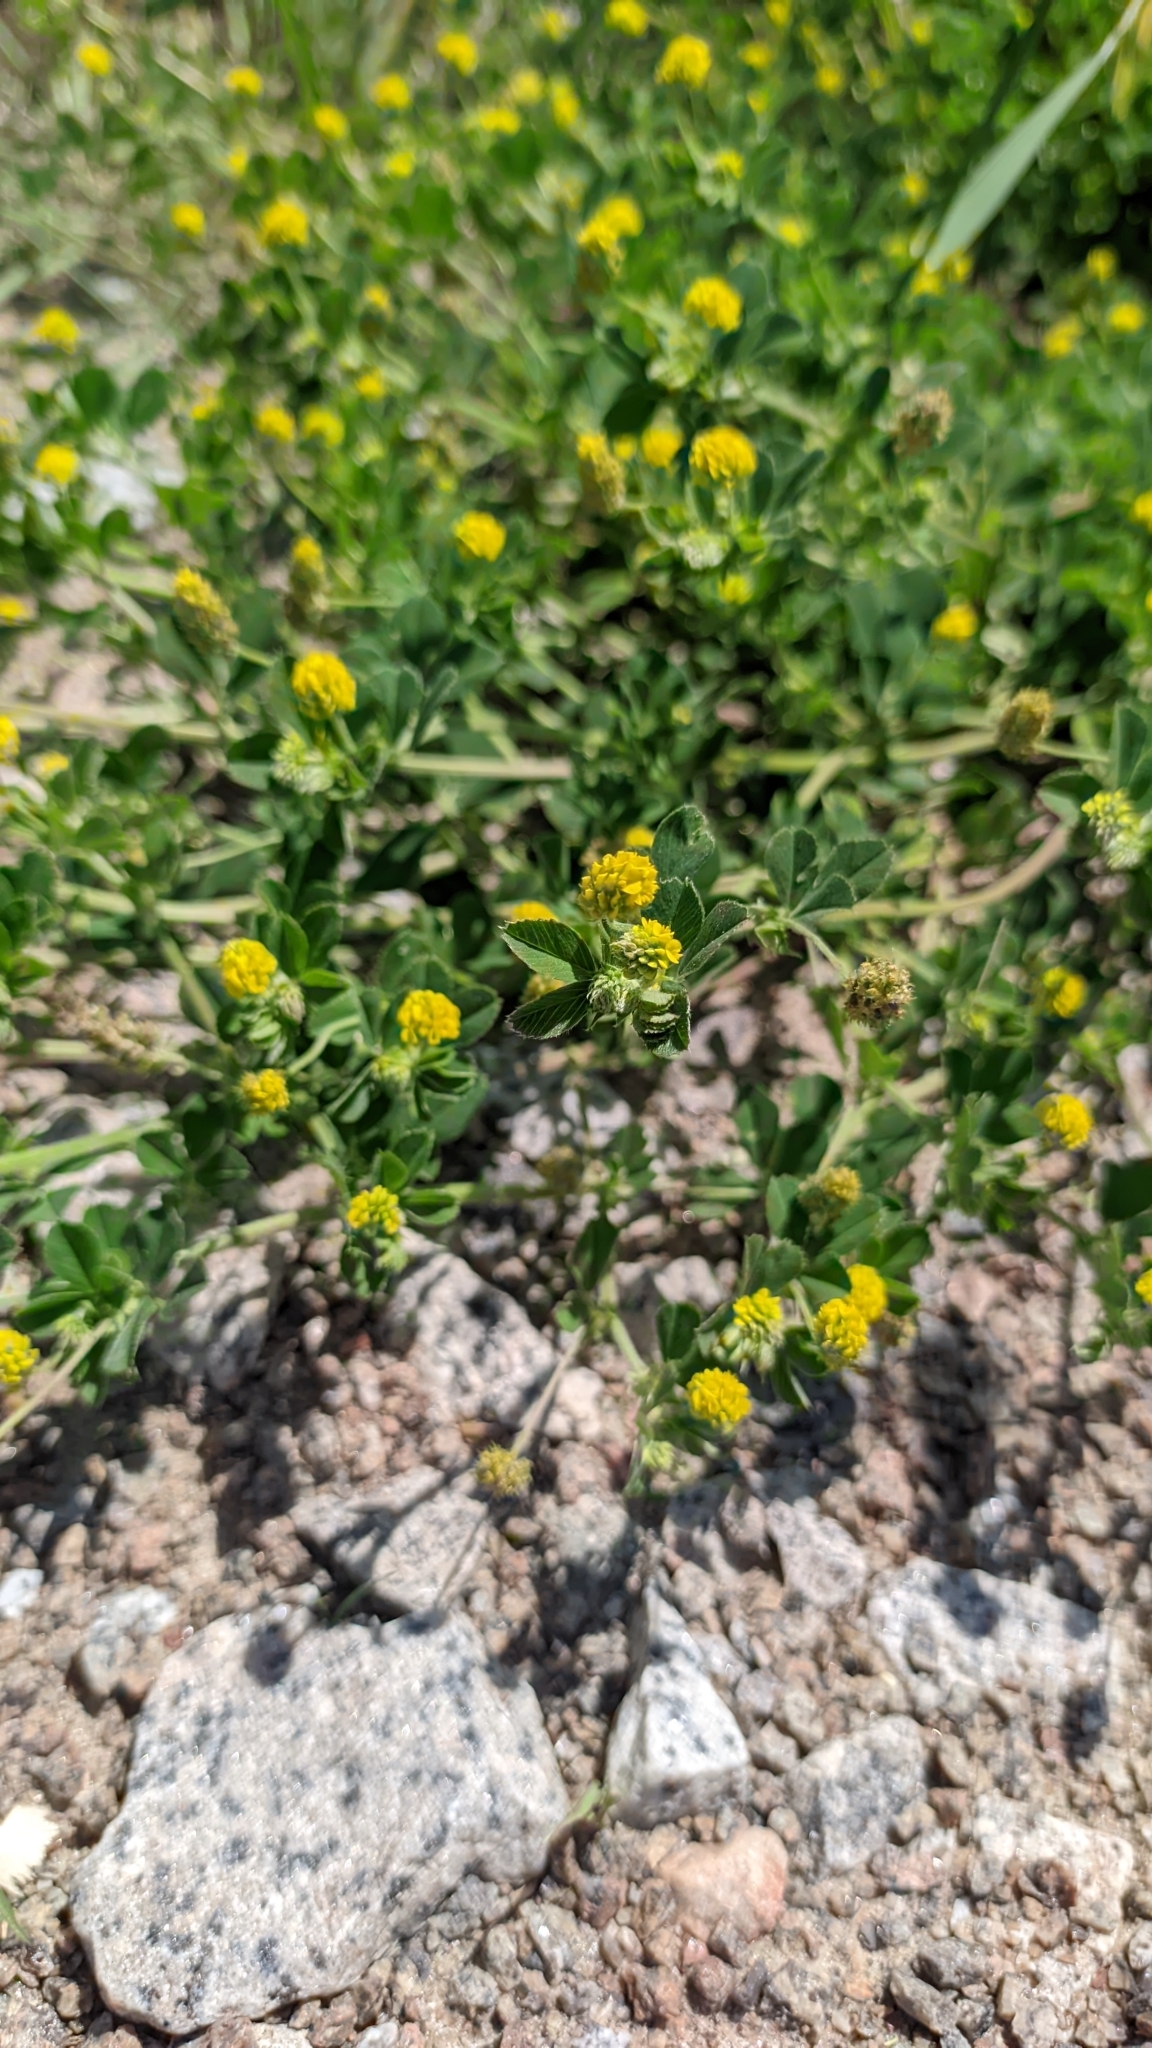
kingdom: Plantae
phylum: Tracheophyta
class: Magnoliopsida
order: Fabales
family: Fabaceae
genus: Medicago
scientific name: Medicago lupulina
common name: Black medick
